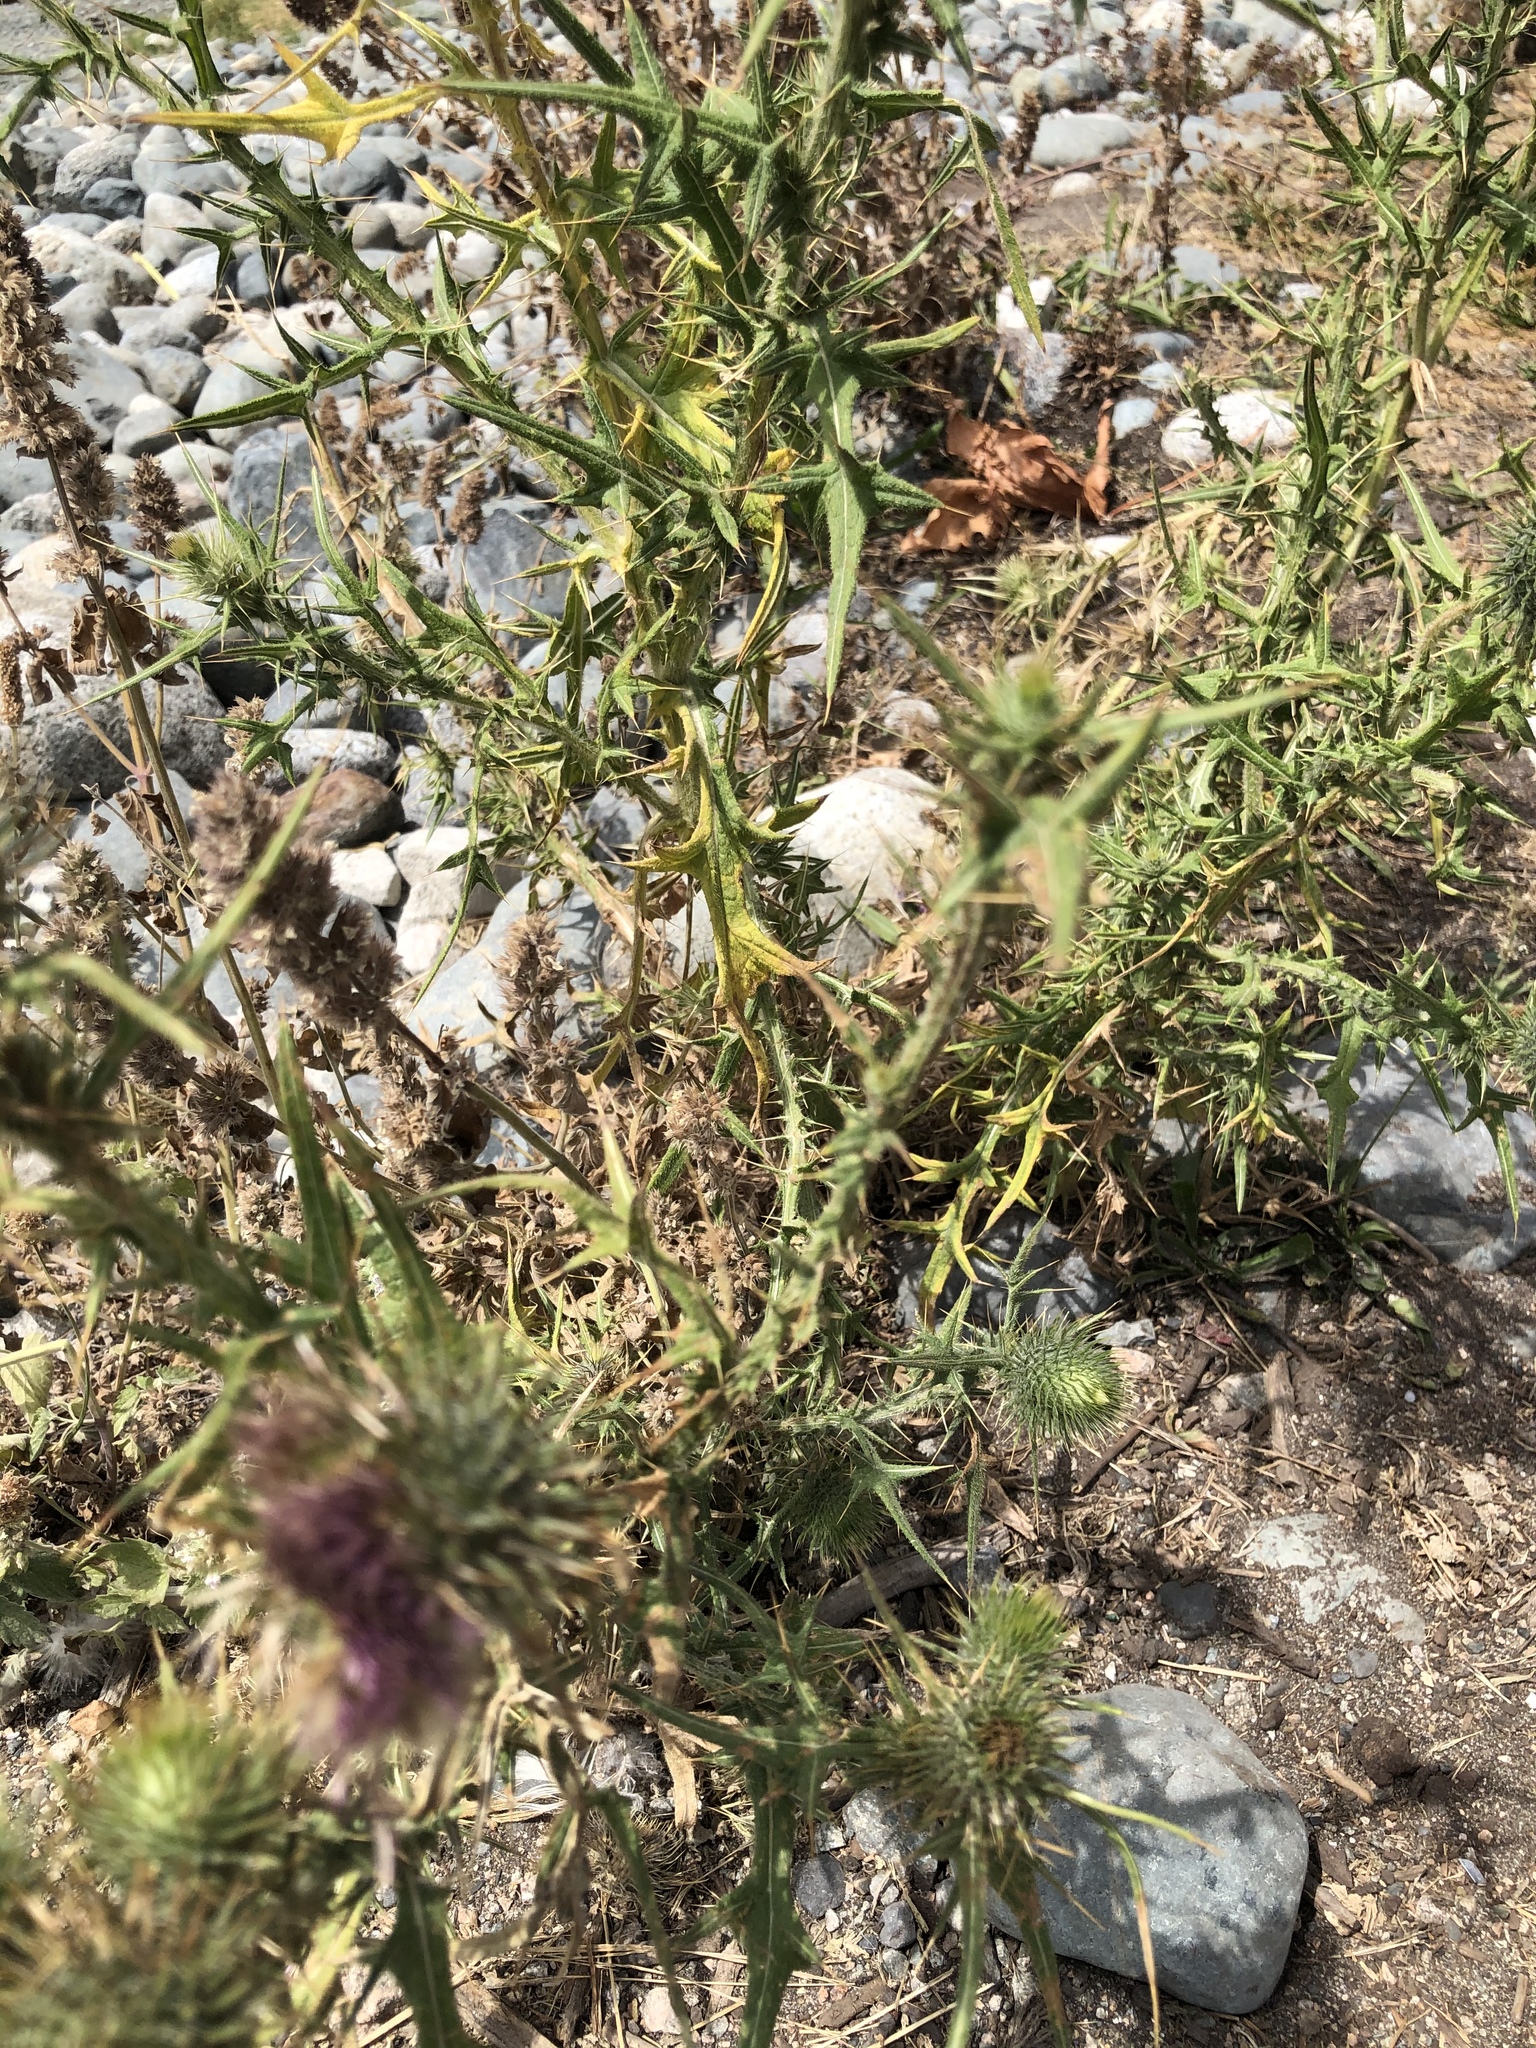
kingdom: Plantae
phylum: Tracheophyta
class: Magnoliopsida
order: Asterales
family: Asteraceae
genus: Cirsium
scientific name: Cirsium vulgare
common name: Bull thistle
